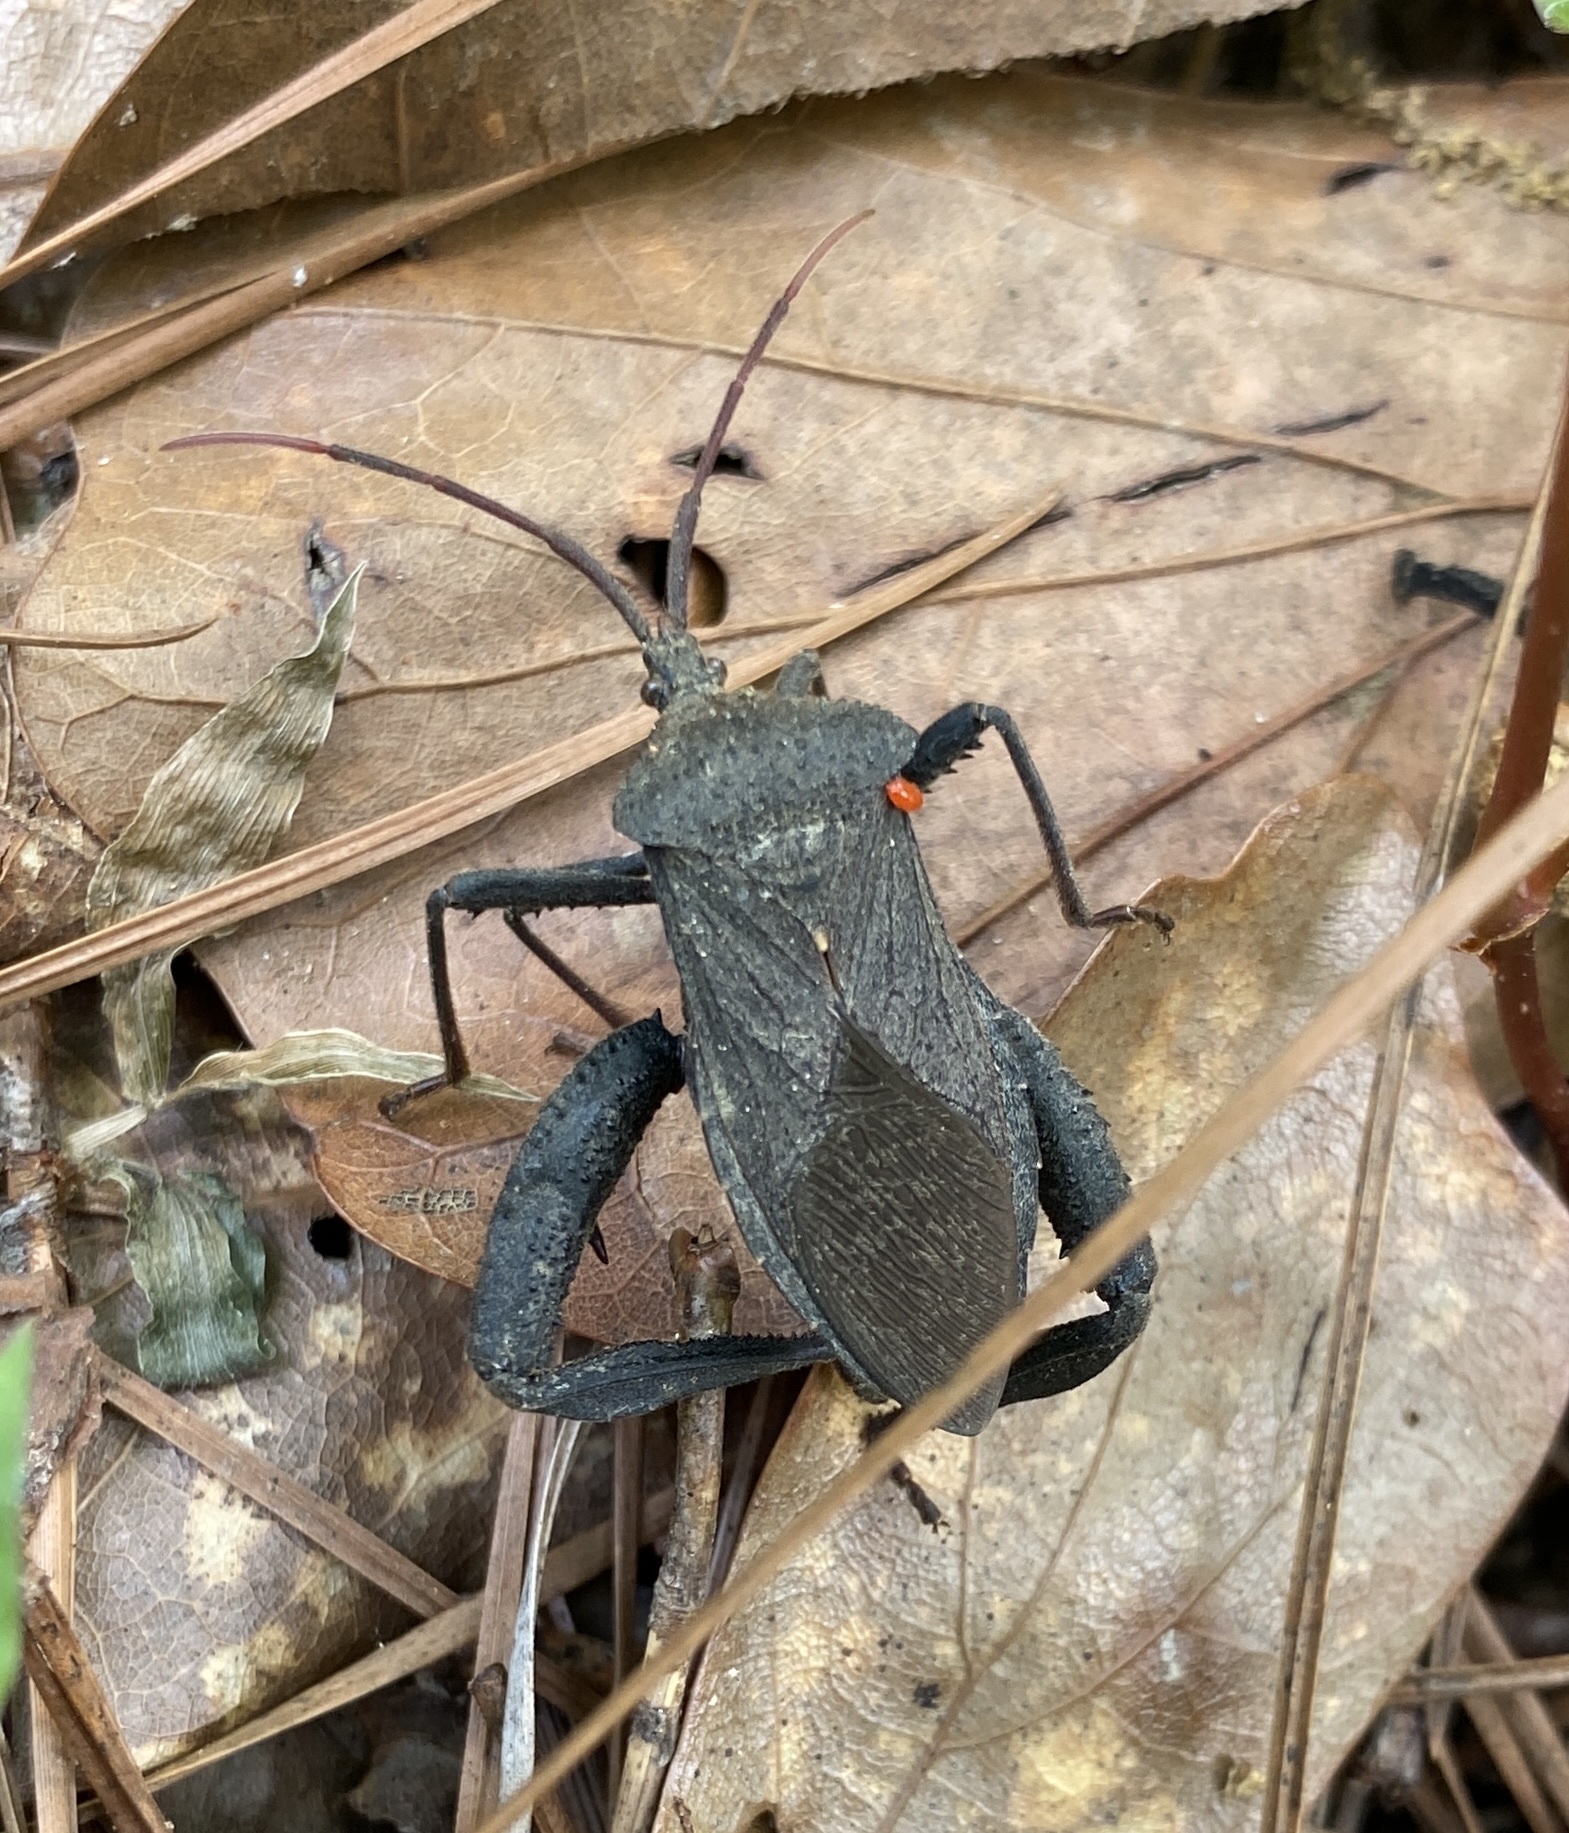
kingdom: Animalia
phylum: Arthropoda
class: Insecta
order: Hemiptera
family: Coreidae
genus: Acanthocephala
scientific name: Acanthocephala femorata
